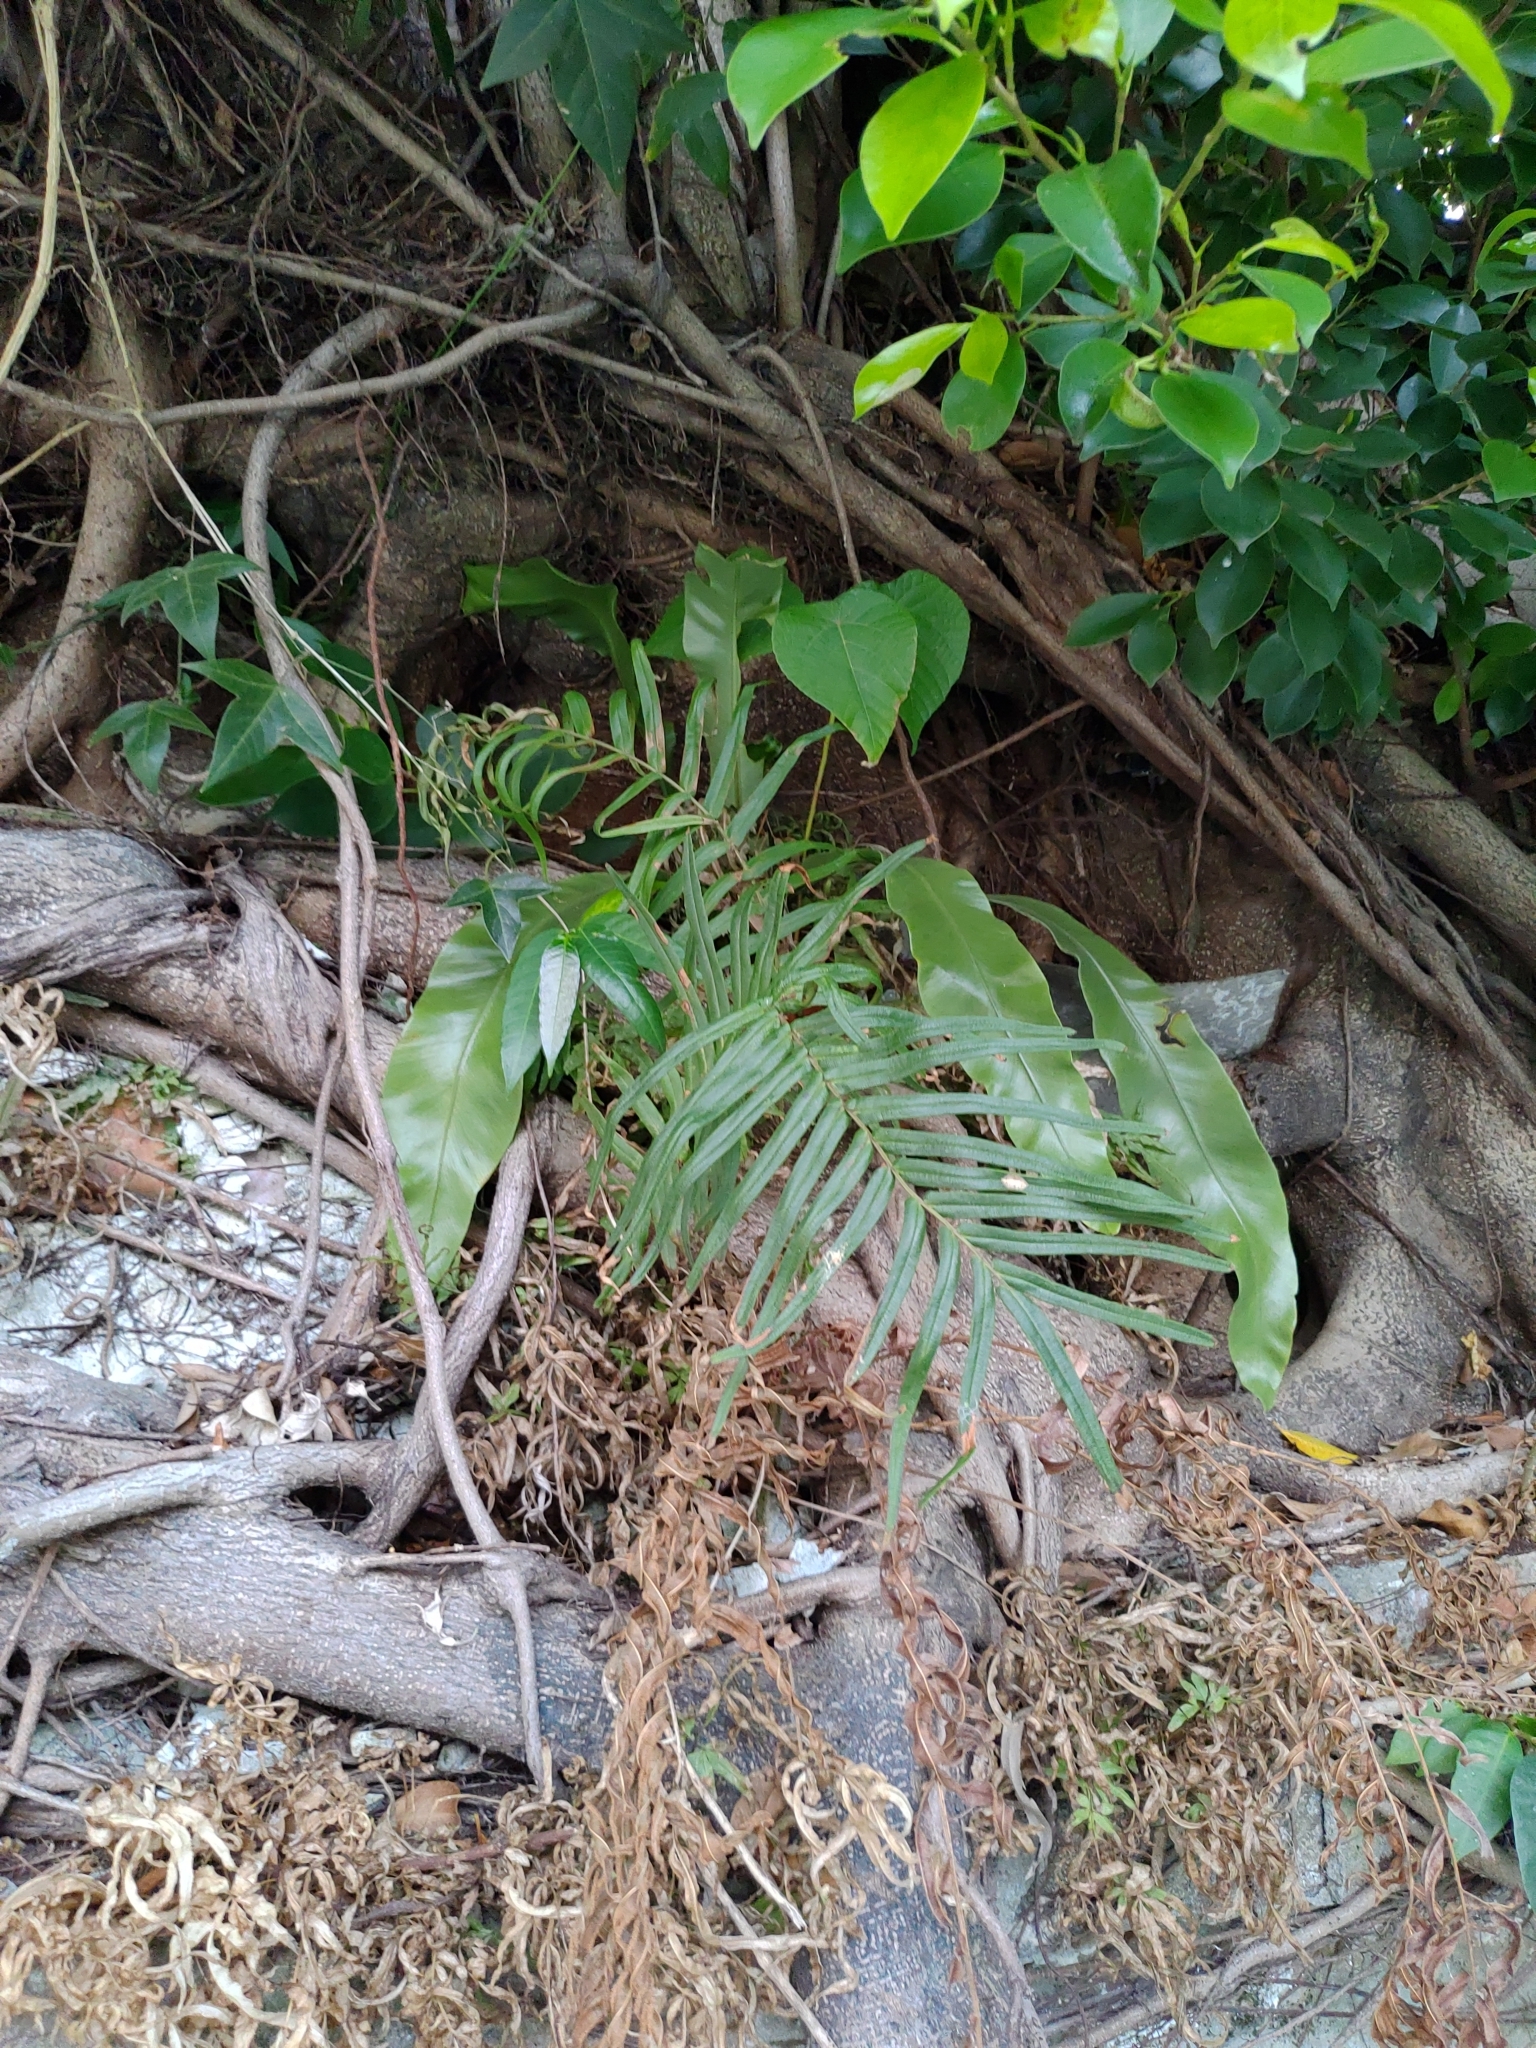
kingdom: Plantae
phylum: Tracheophyta
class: Polypodiopsida
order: Polypodiales
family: Pteridaceae
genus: Pteris
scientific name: Pteris vittata
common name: Ladder brake
